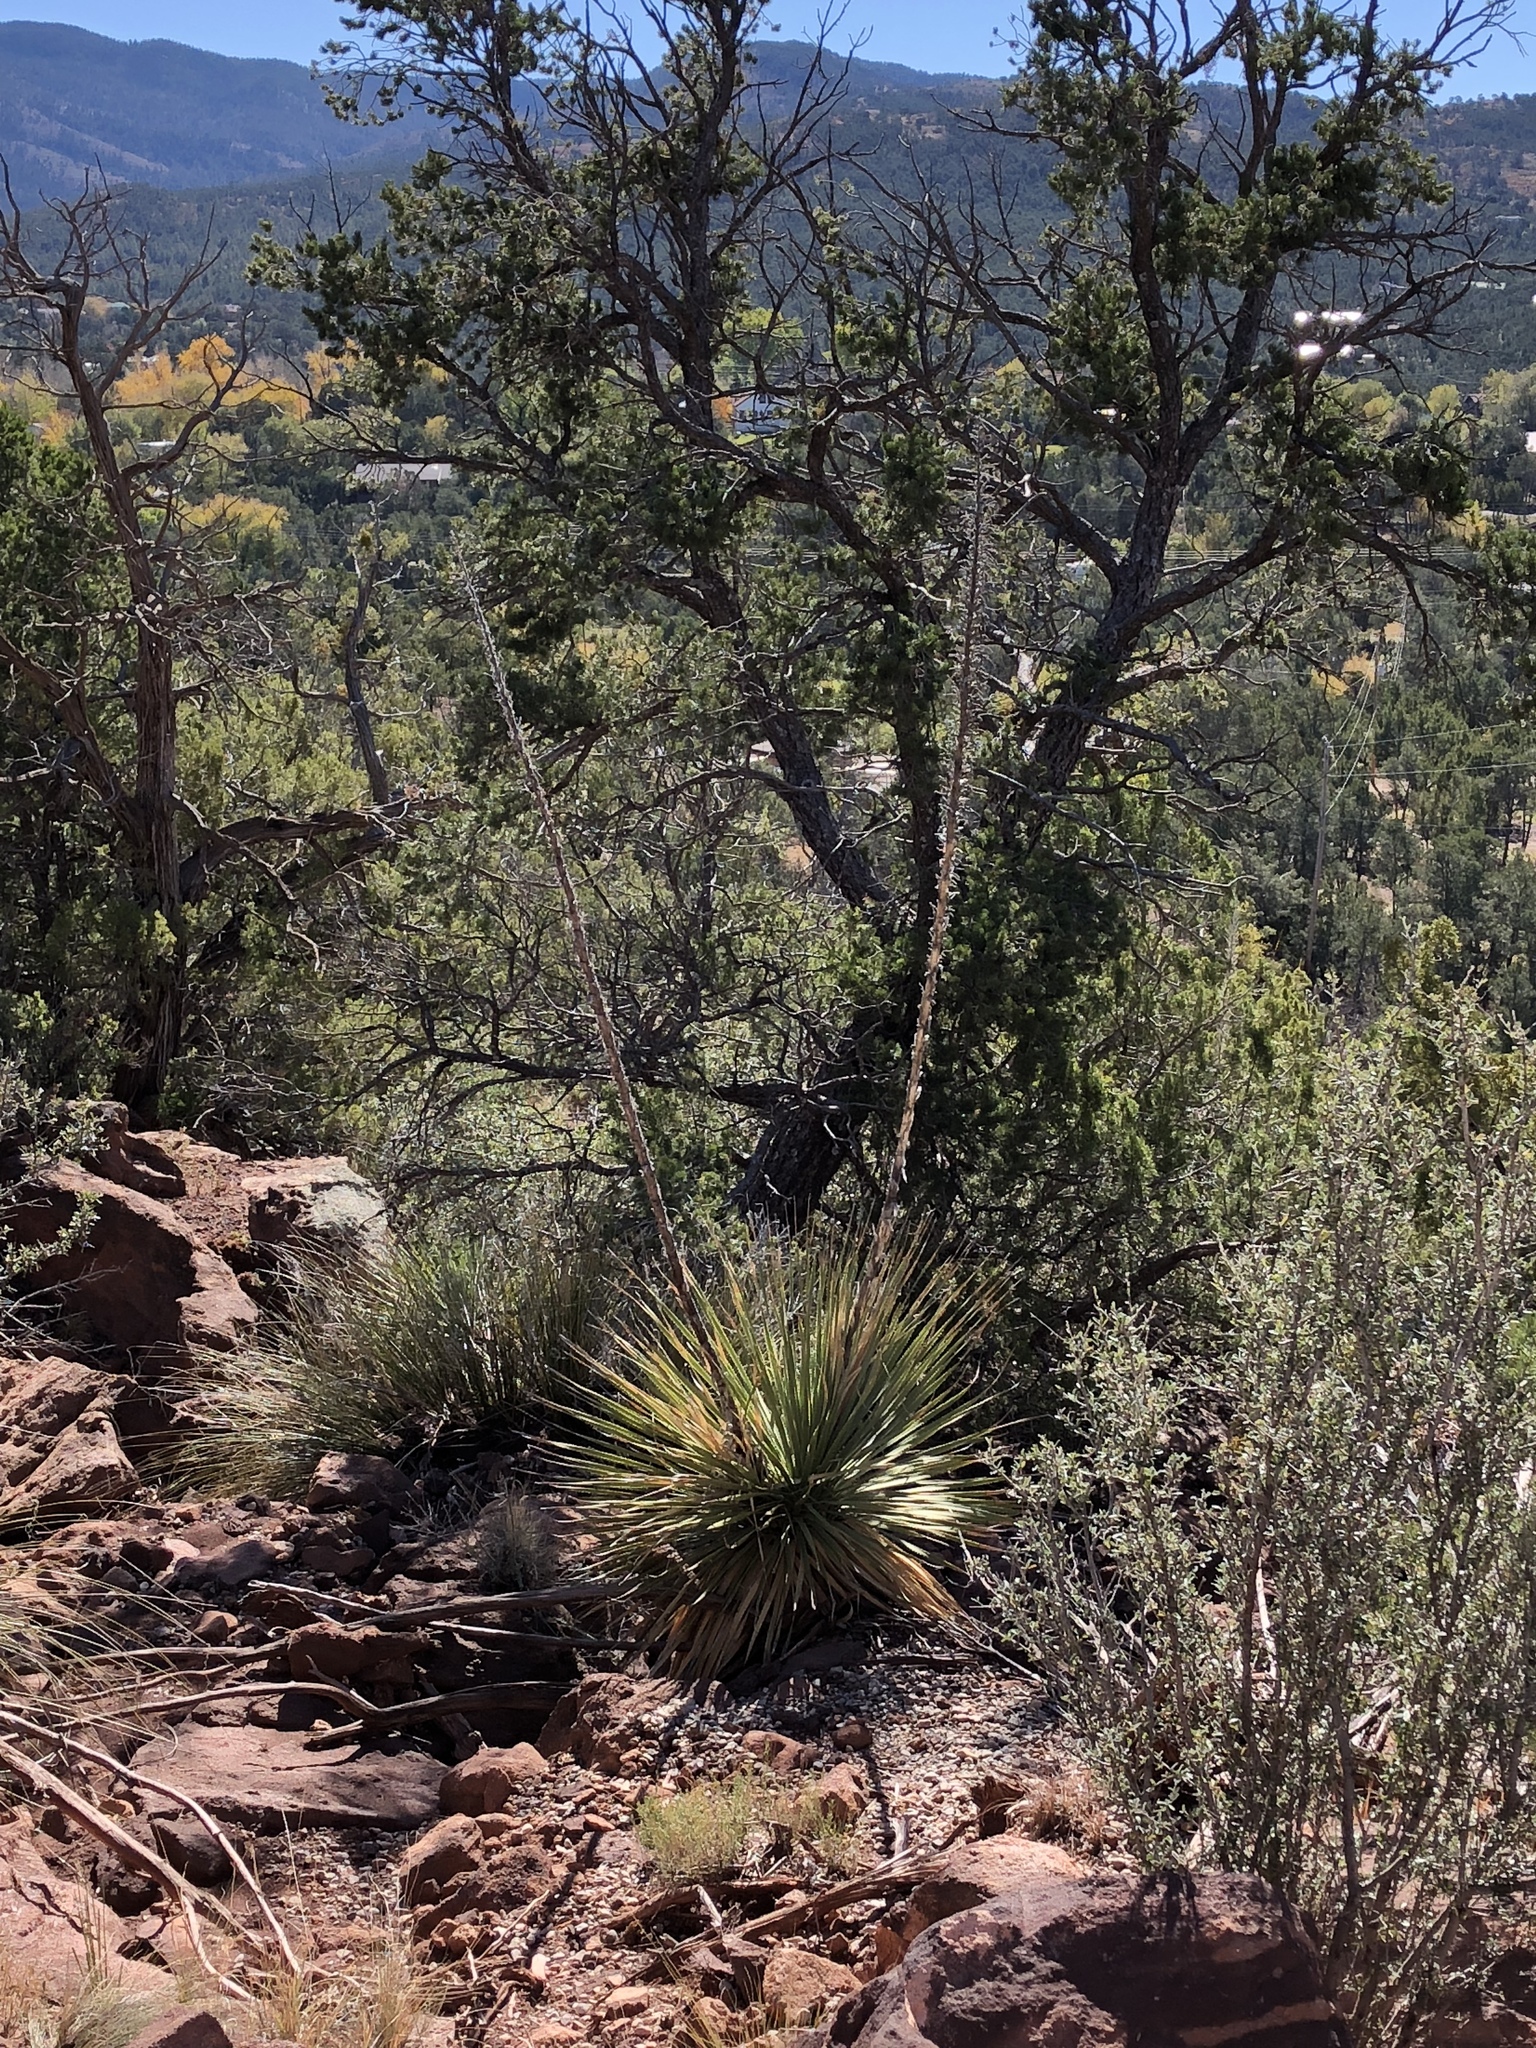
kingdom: Plantae
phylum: Tracheophyta
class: Liliopsida
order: Asparagales
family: Asparagaceae
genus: Dasylirion
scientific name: Dasylirion wheeleri
